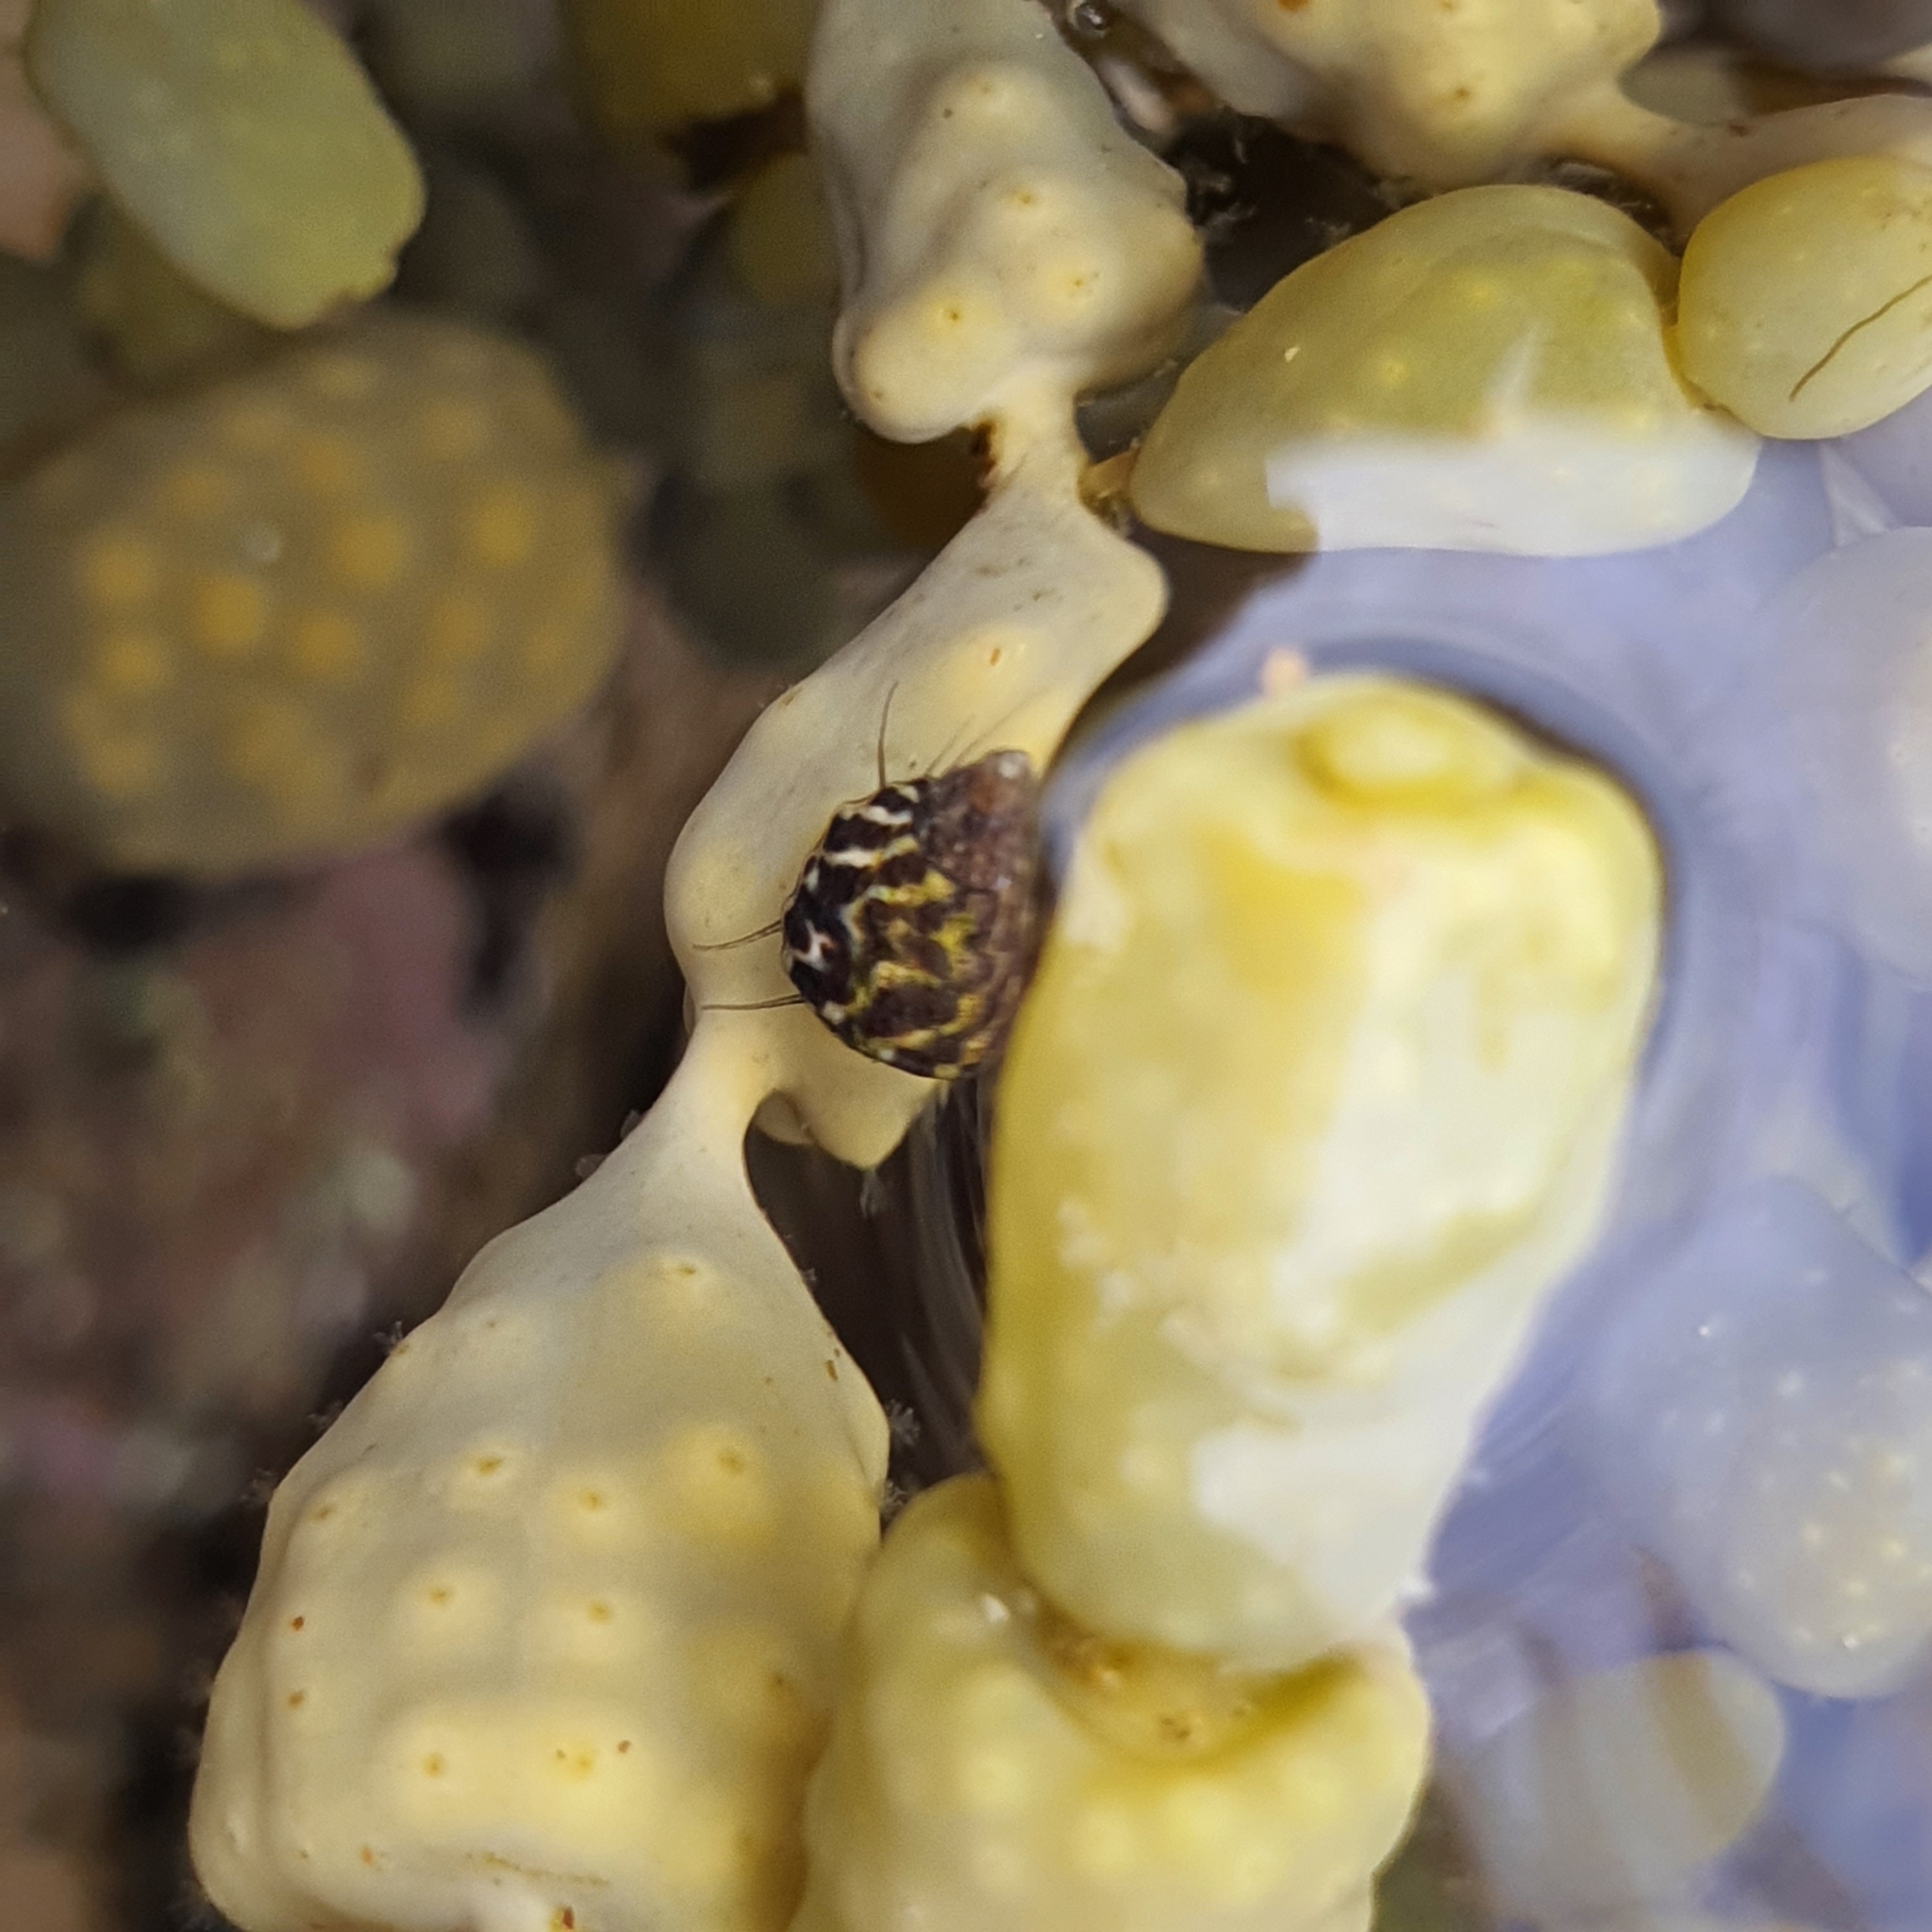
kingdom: Animalia
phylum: Mollusca
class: Gastropoda
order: Trochida
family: Trochidae
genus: Austrocochlea
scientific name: Austrocochlea porcata
